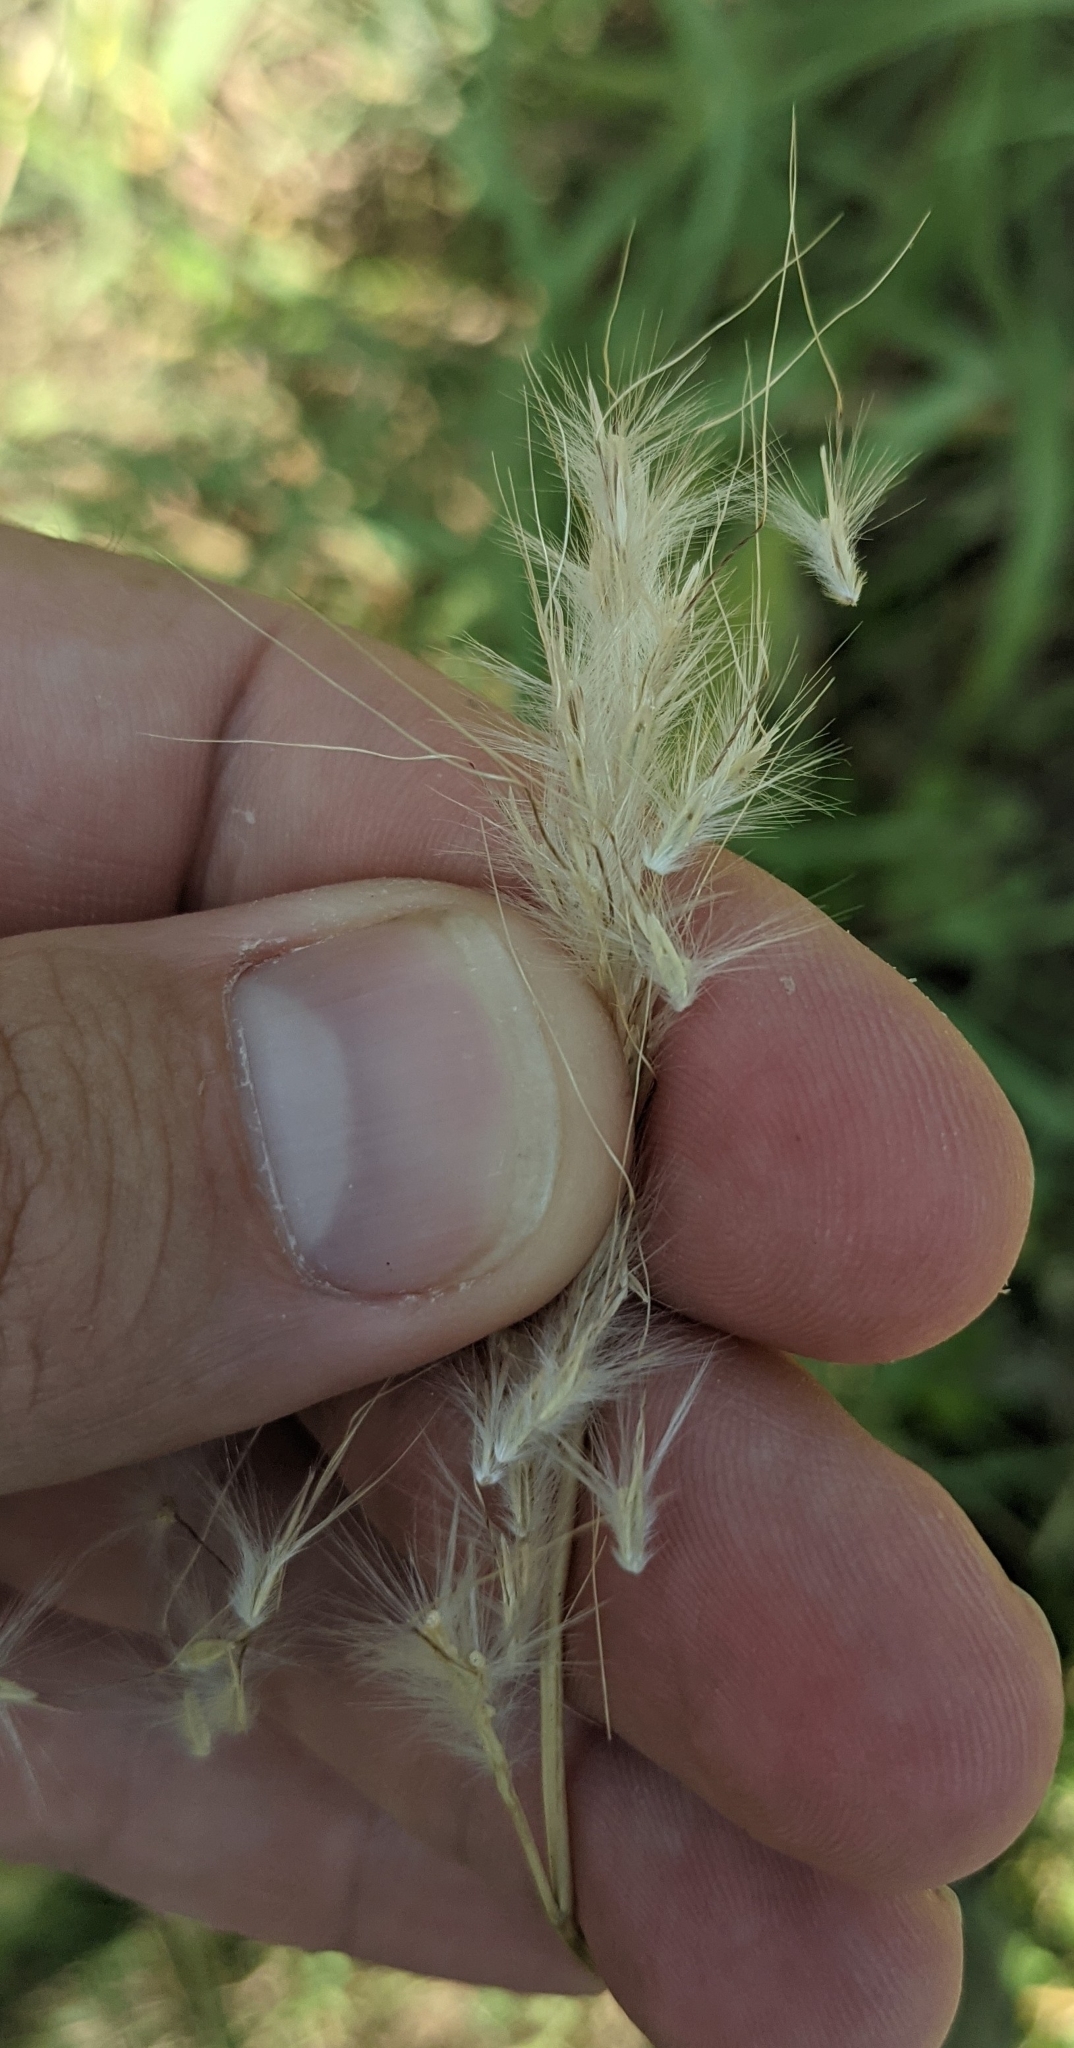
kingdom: Plantae
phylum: Tracheophyta
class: Liliopsida
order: Poales
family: Poaceae
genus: Bothriochloa
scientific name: Bothriochloa hybrida
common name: Hybrid bluestem
